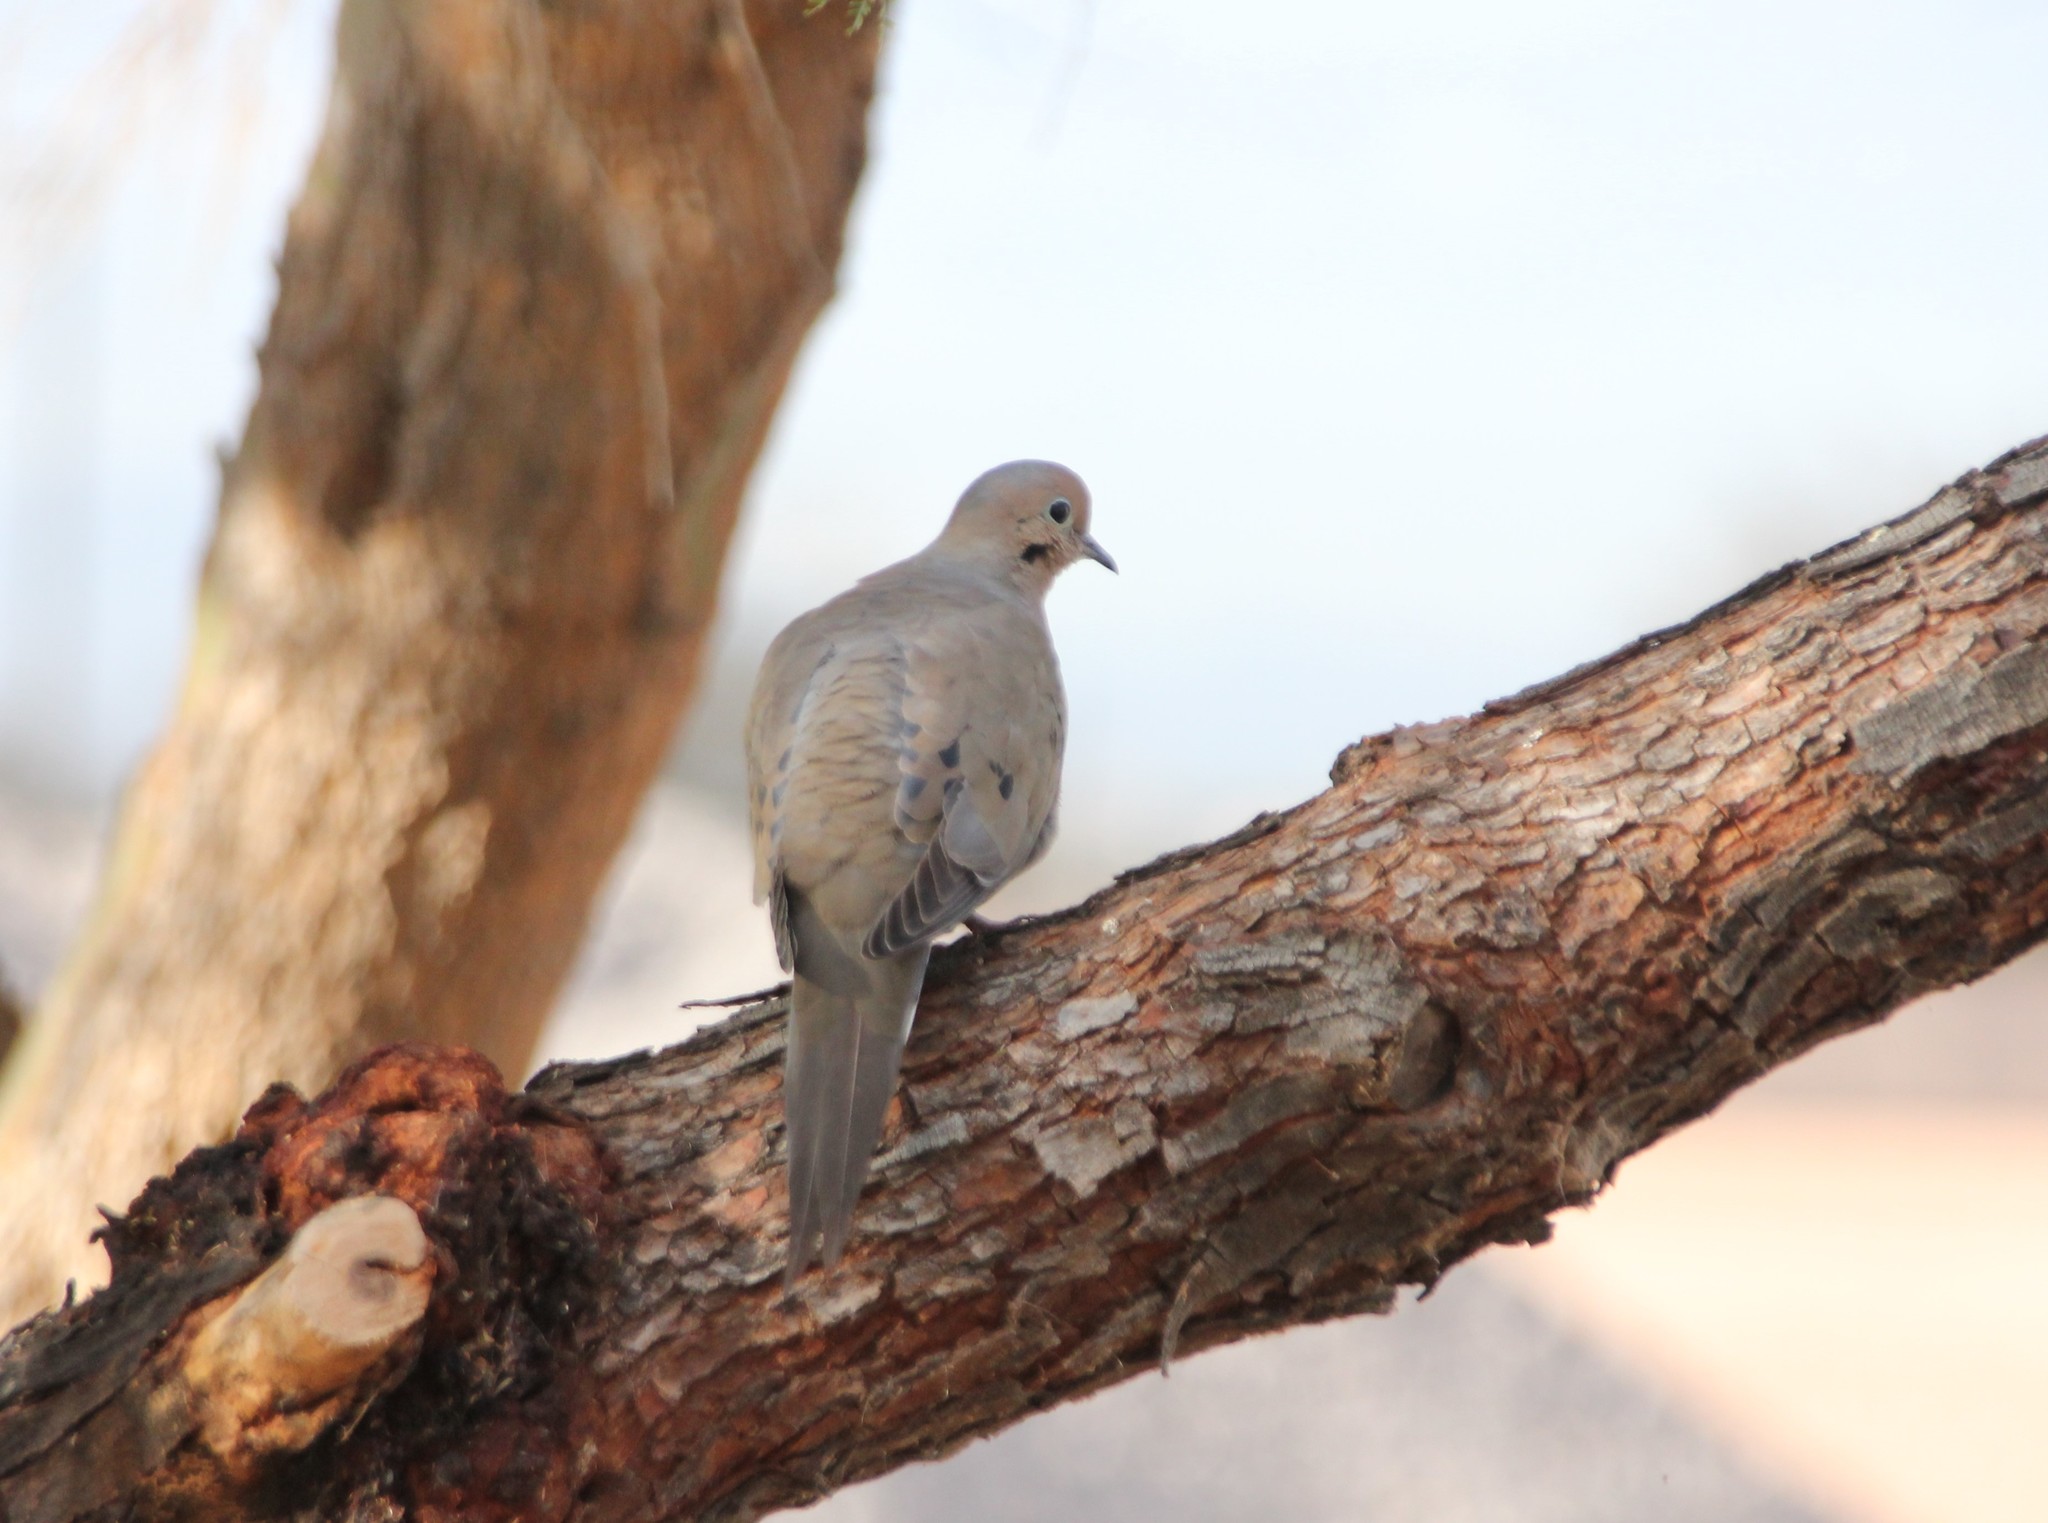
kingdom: Animalia
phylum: Chordata
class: Aves
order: Columbiformes
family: Columbidae
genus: Zenaida
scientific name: Zenaida macroura
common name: Mourning dove
